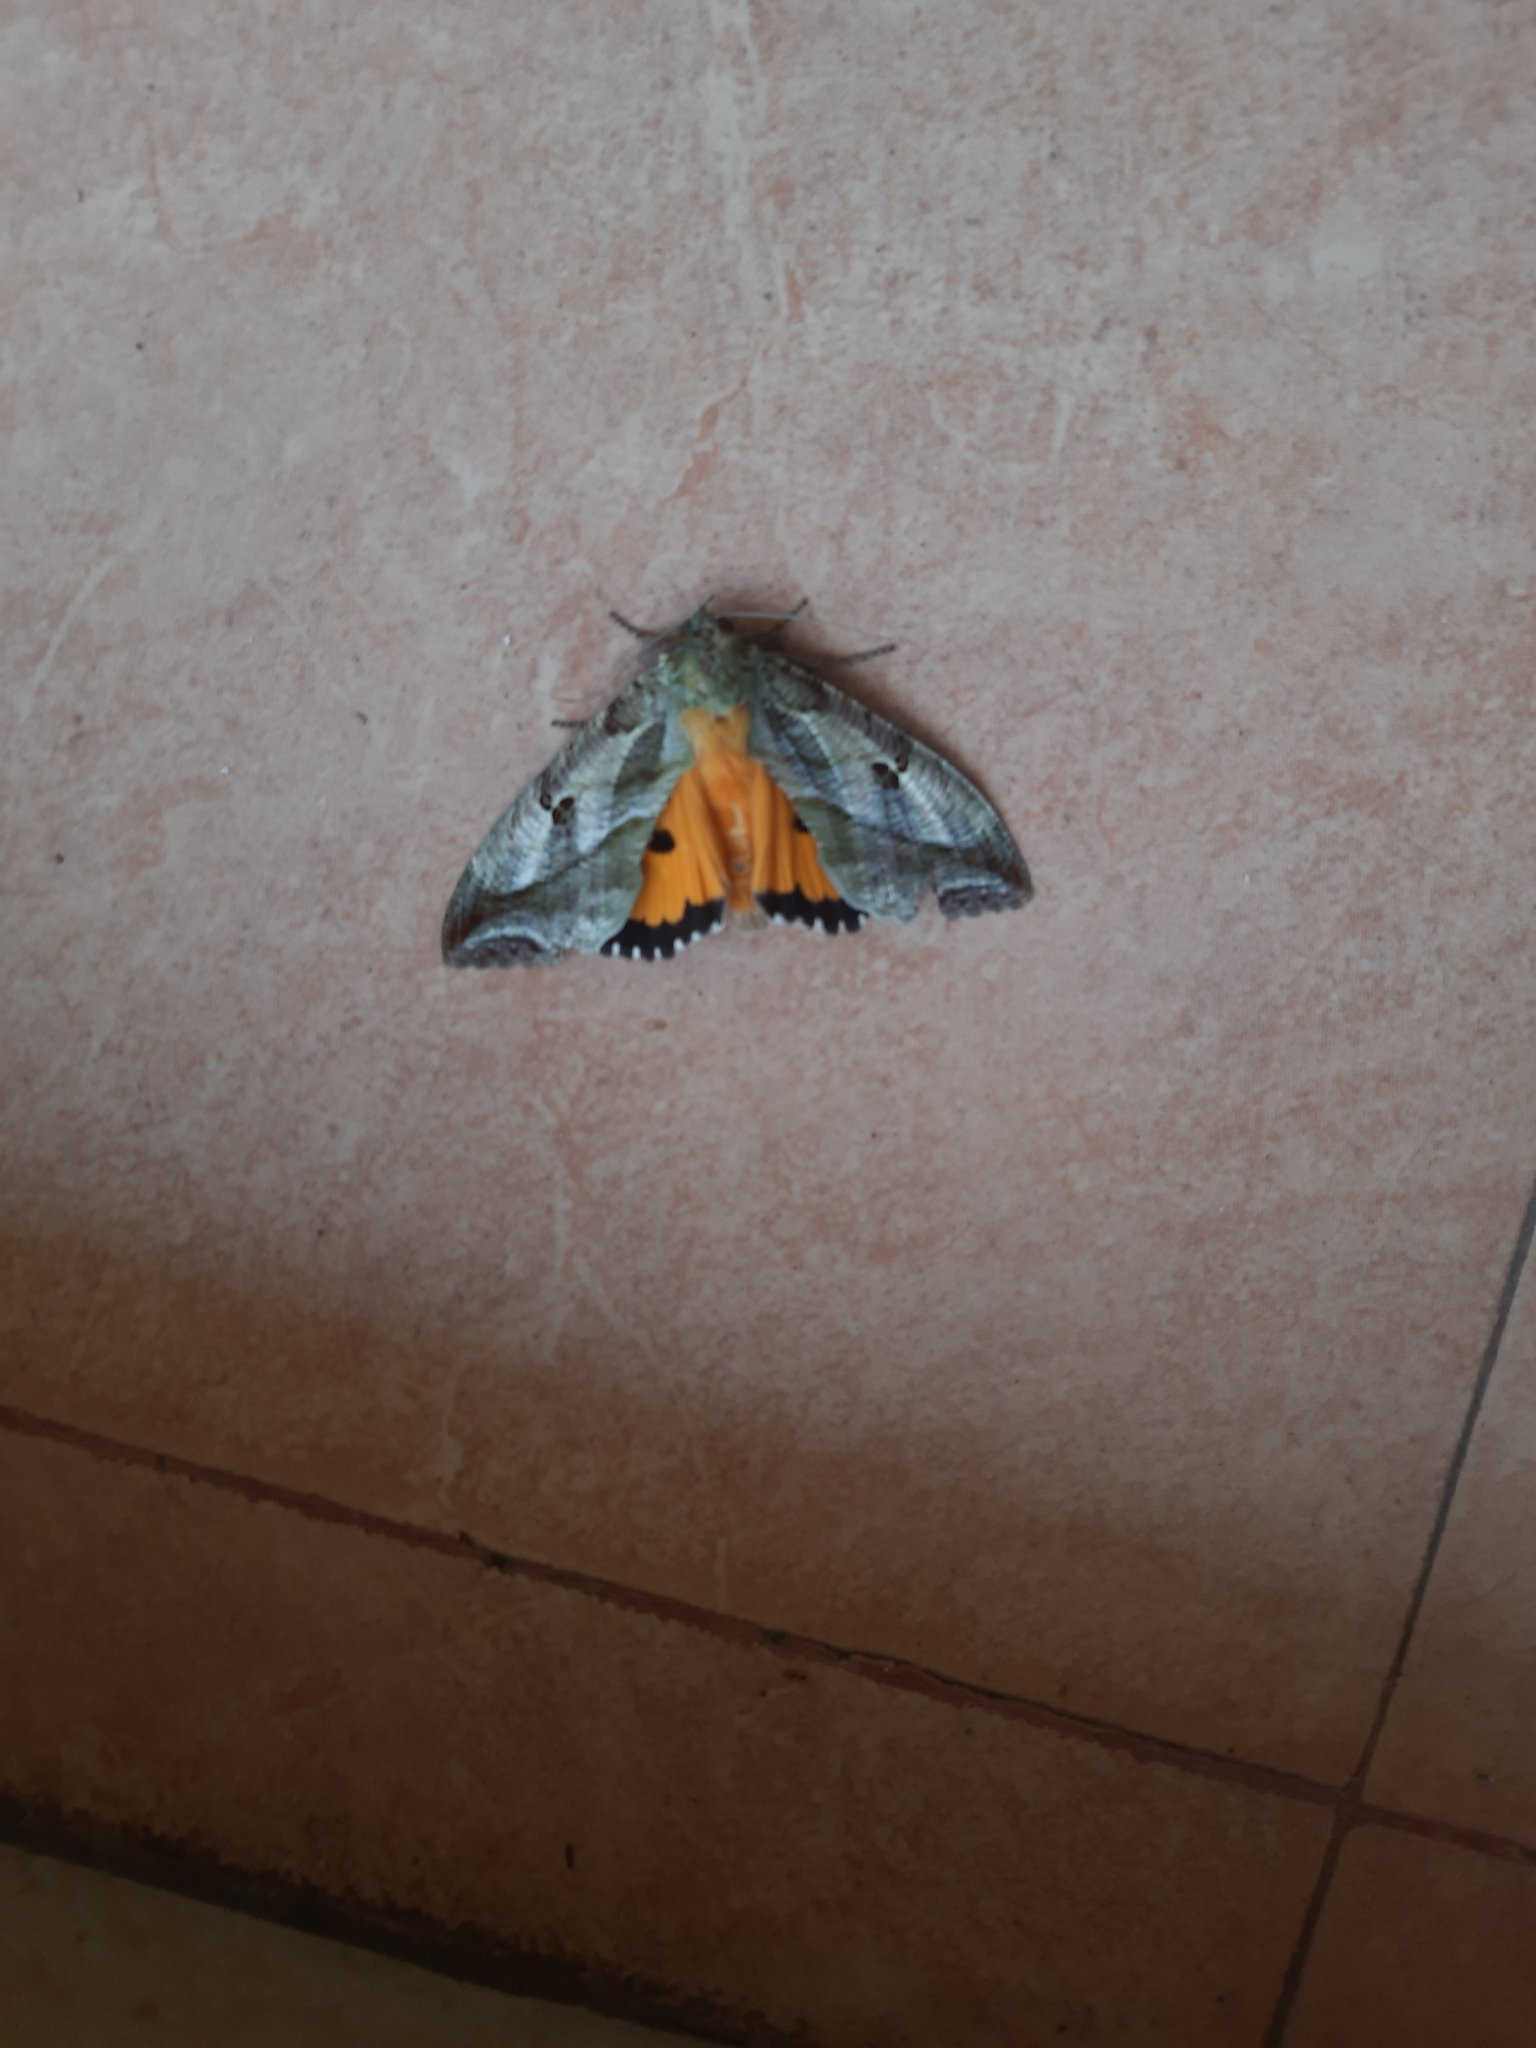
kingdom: Animalia
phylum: Arthropoda
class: Insecta
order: Lepidoptera
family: Erebidae
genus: Eudocima
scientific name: Eudocima materna
